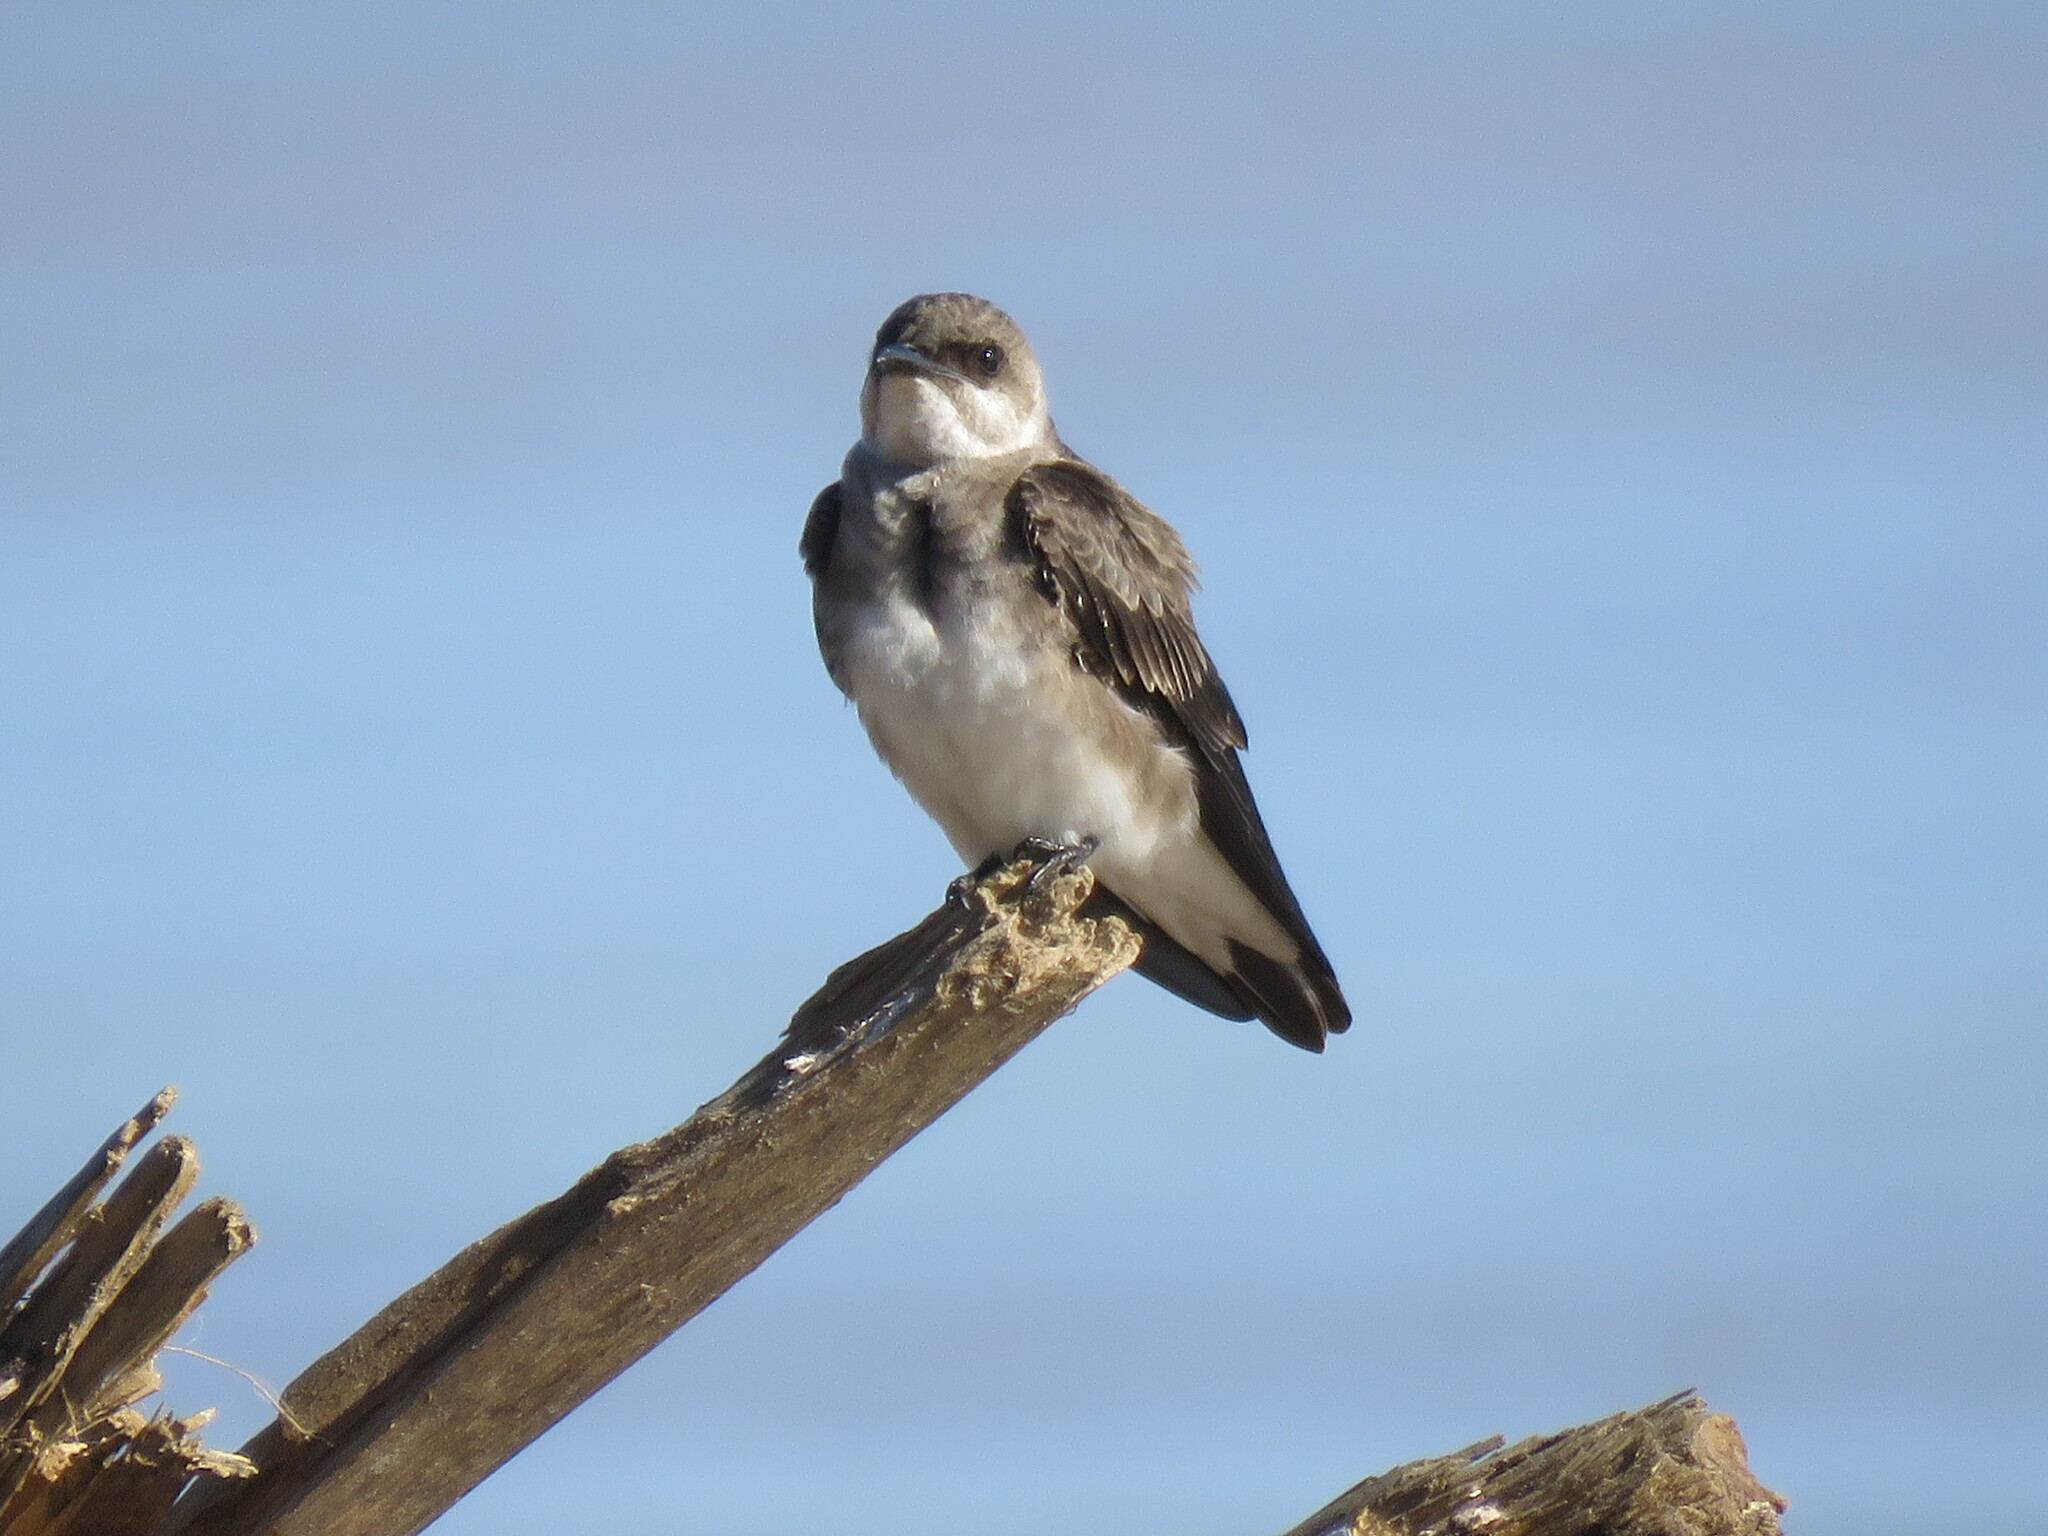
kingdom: Animalia
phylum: Chordata
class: Aves
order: Passeriformes
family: Hirundinidae
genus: Progne
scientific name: Progne tapera
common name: Brown-chested martin
